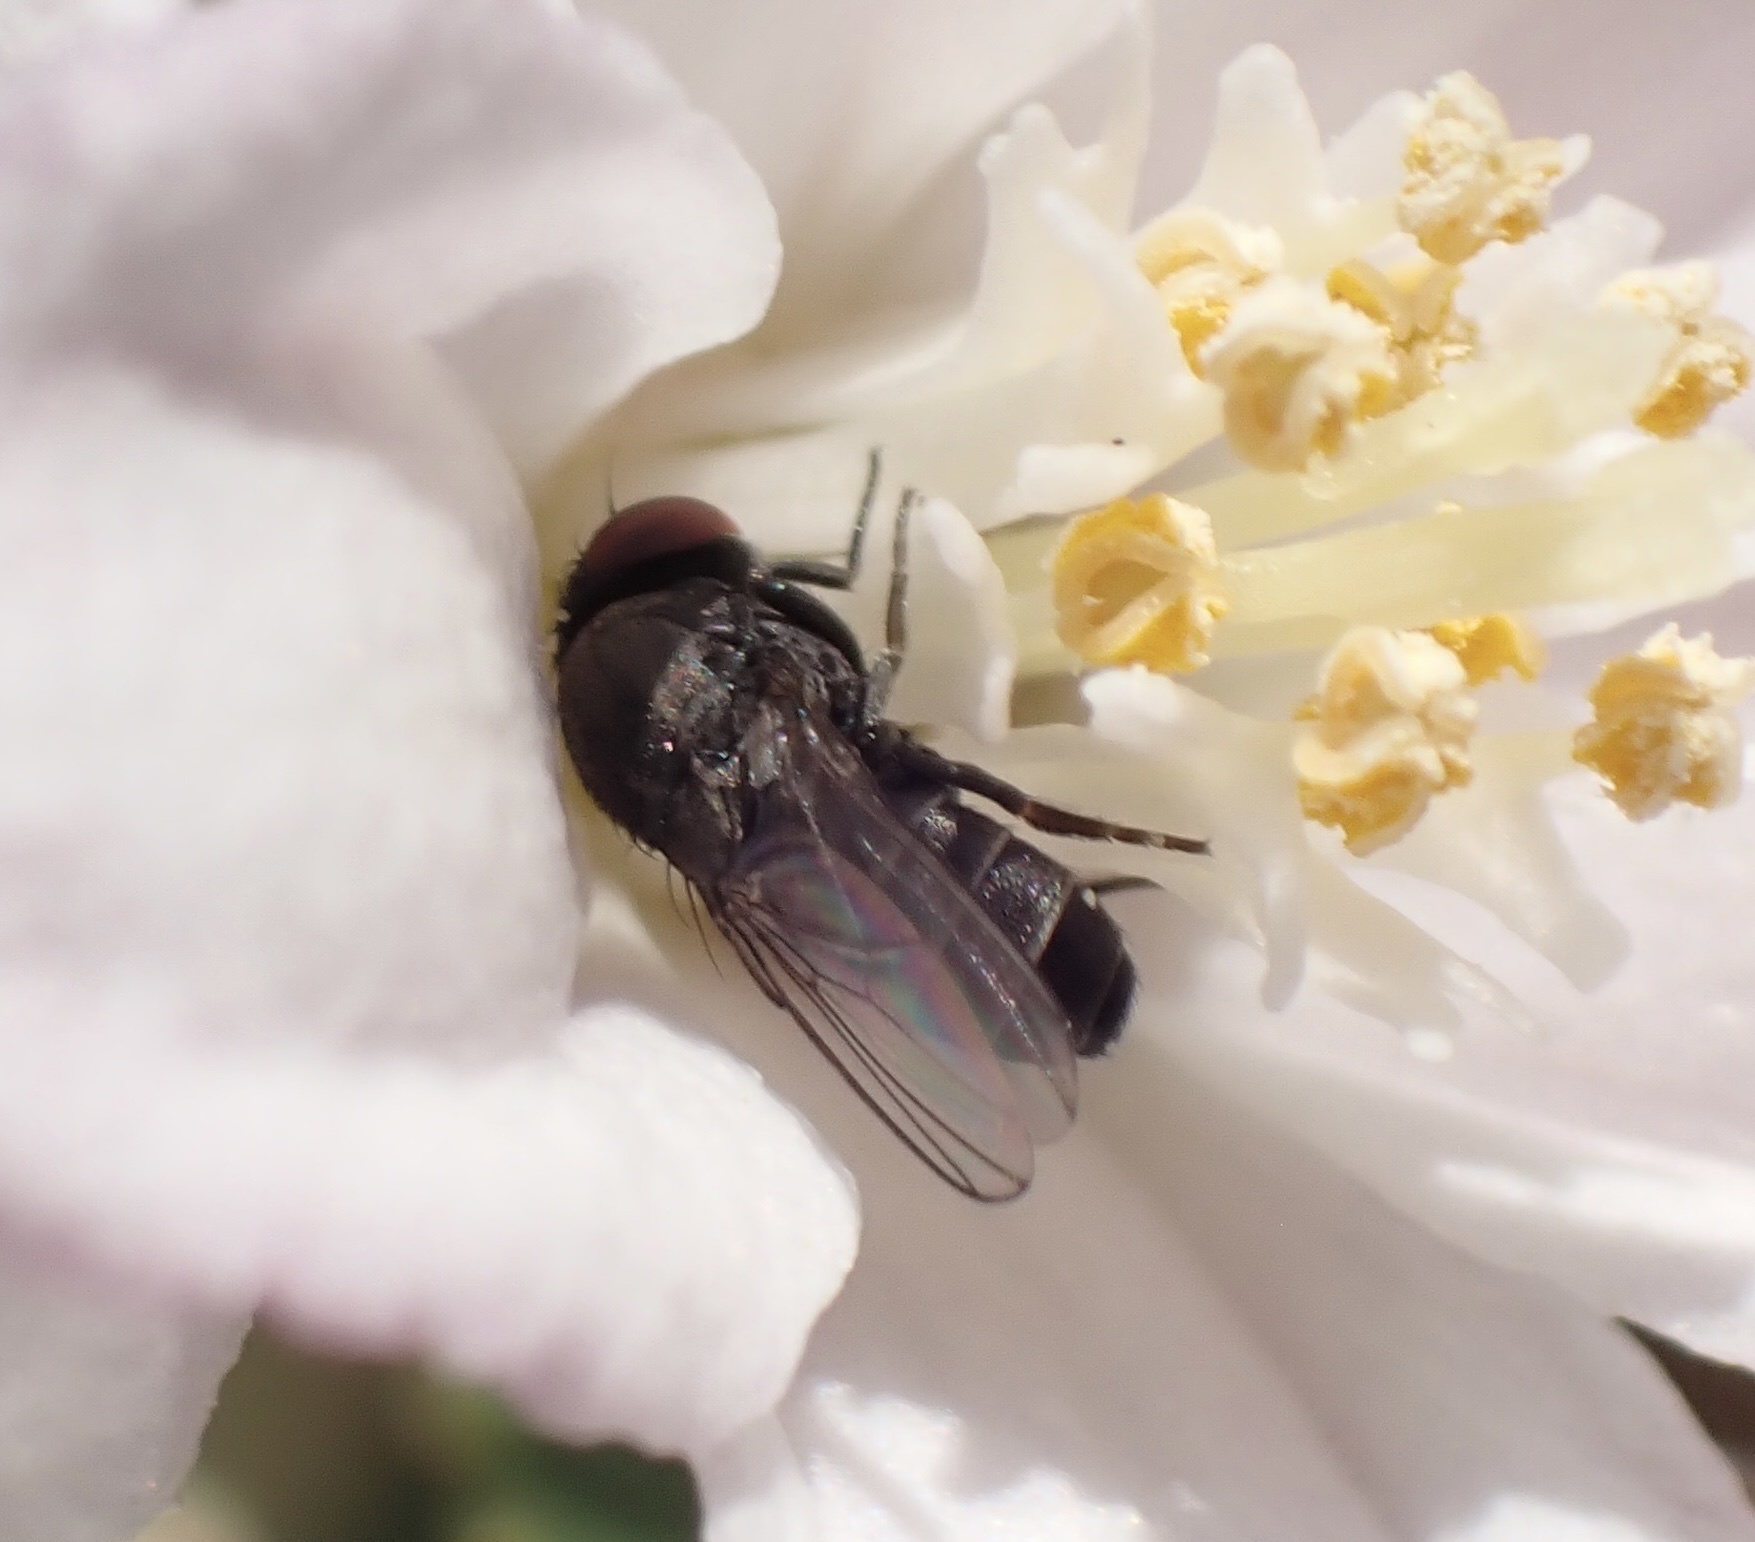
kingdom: Animalia
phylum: Arthropoda
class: Insecta
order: Diptera
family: Drosophilidae
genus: Cacoxenus
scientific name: Cacoxenus indagator
